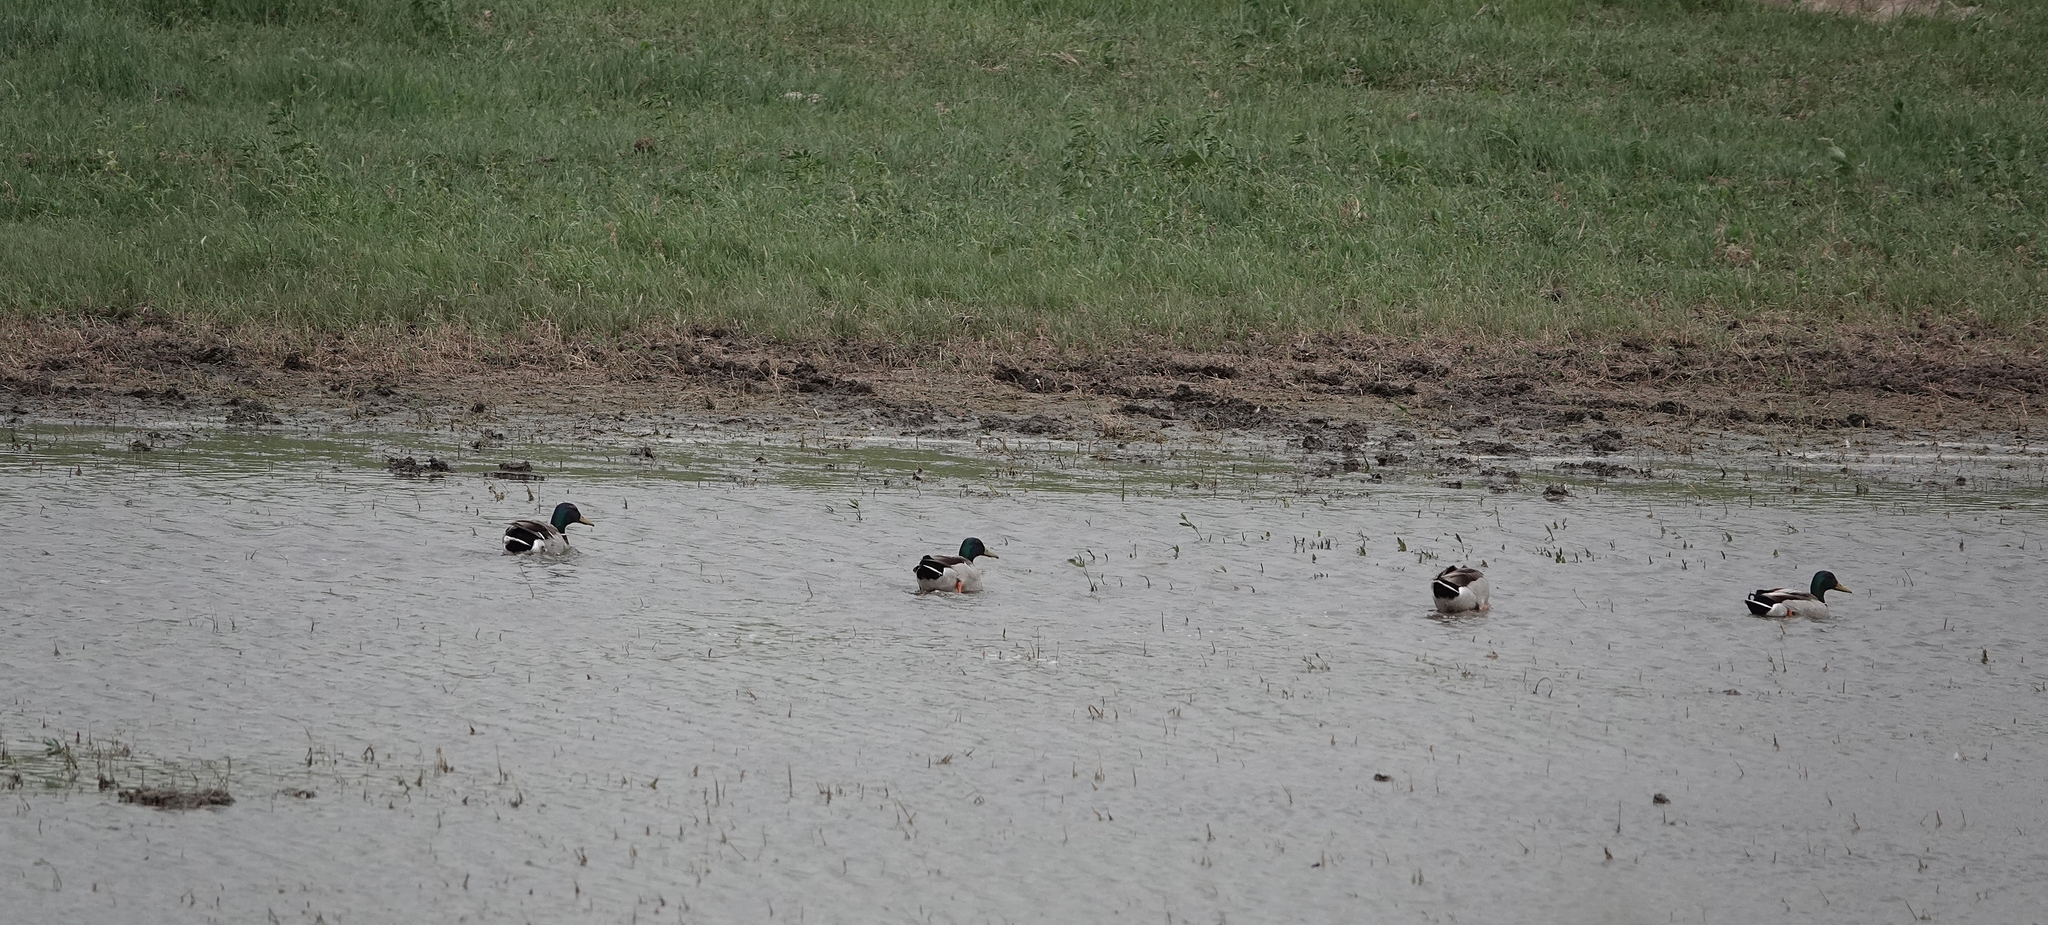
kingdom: Animalia
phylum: Chordata
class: Aves
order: Anseriformes
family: Anatidae
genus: Anas
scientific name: Anas platyrhynchos
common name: Mallard
